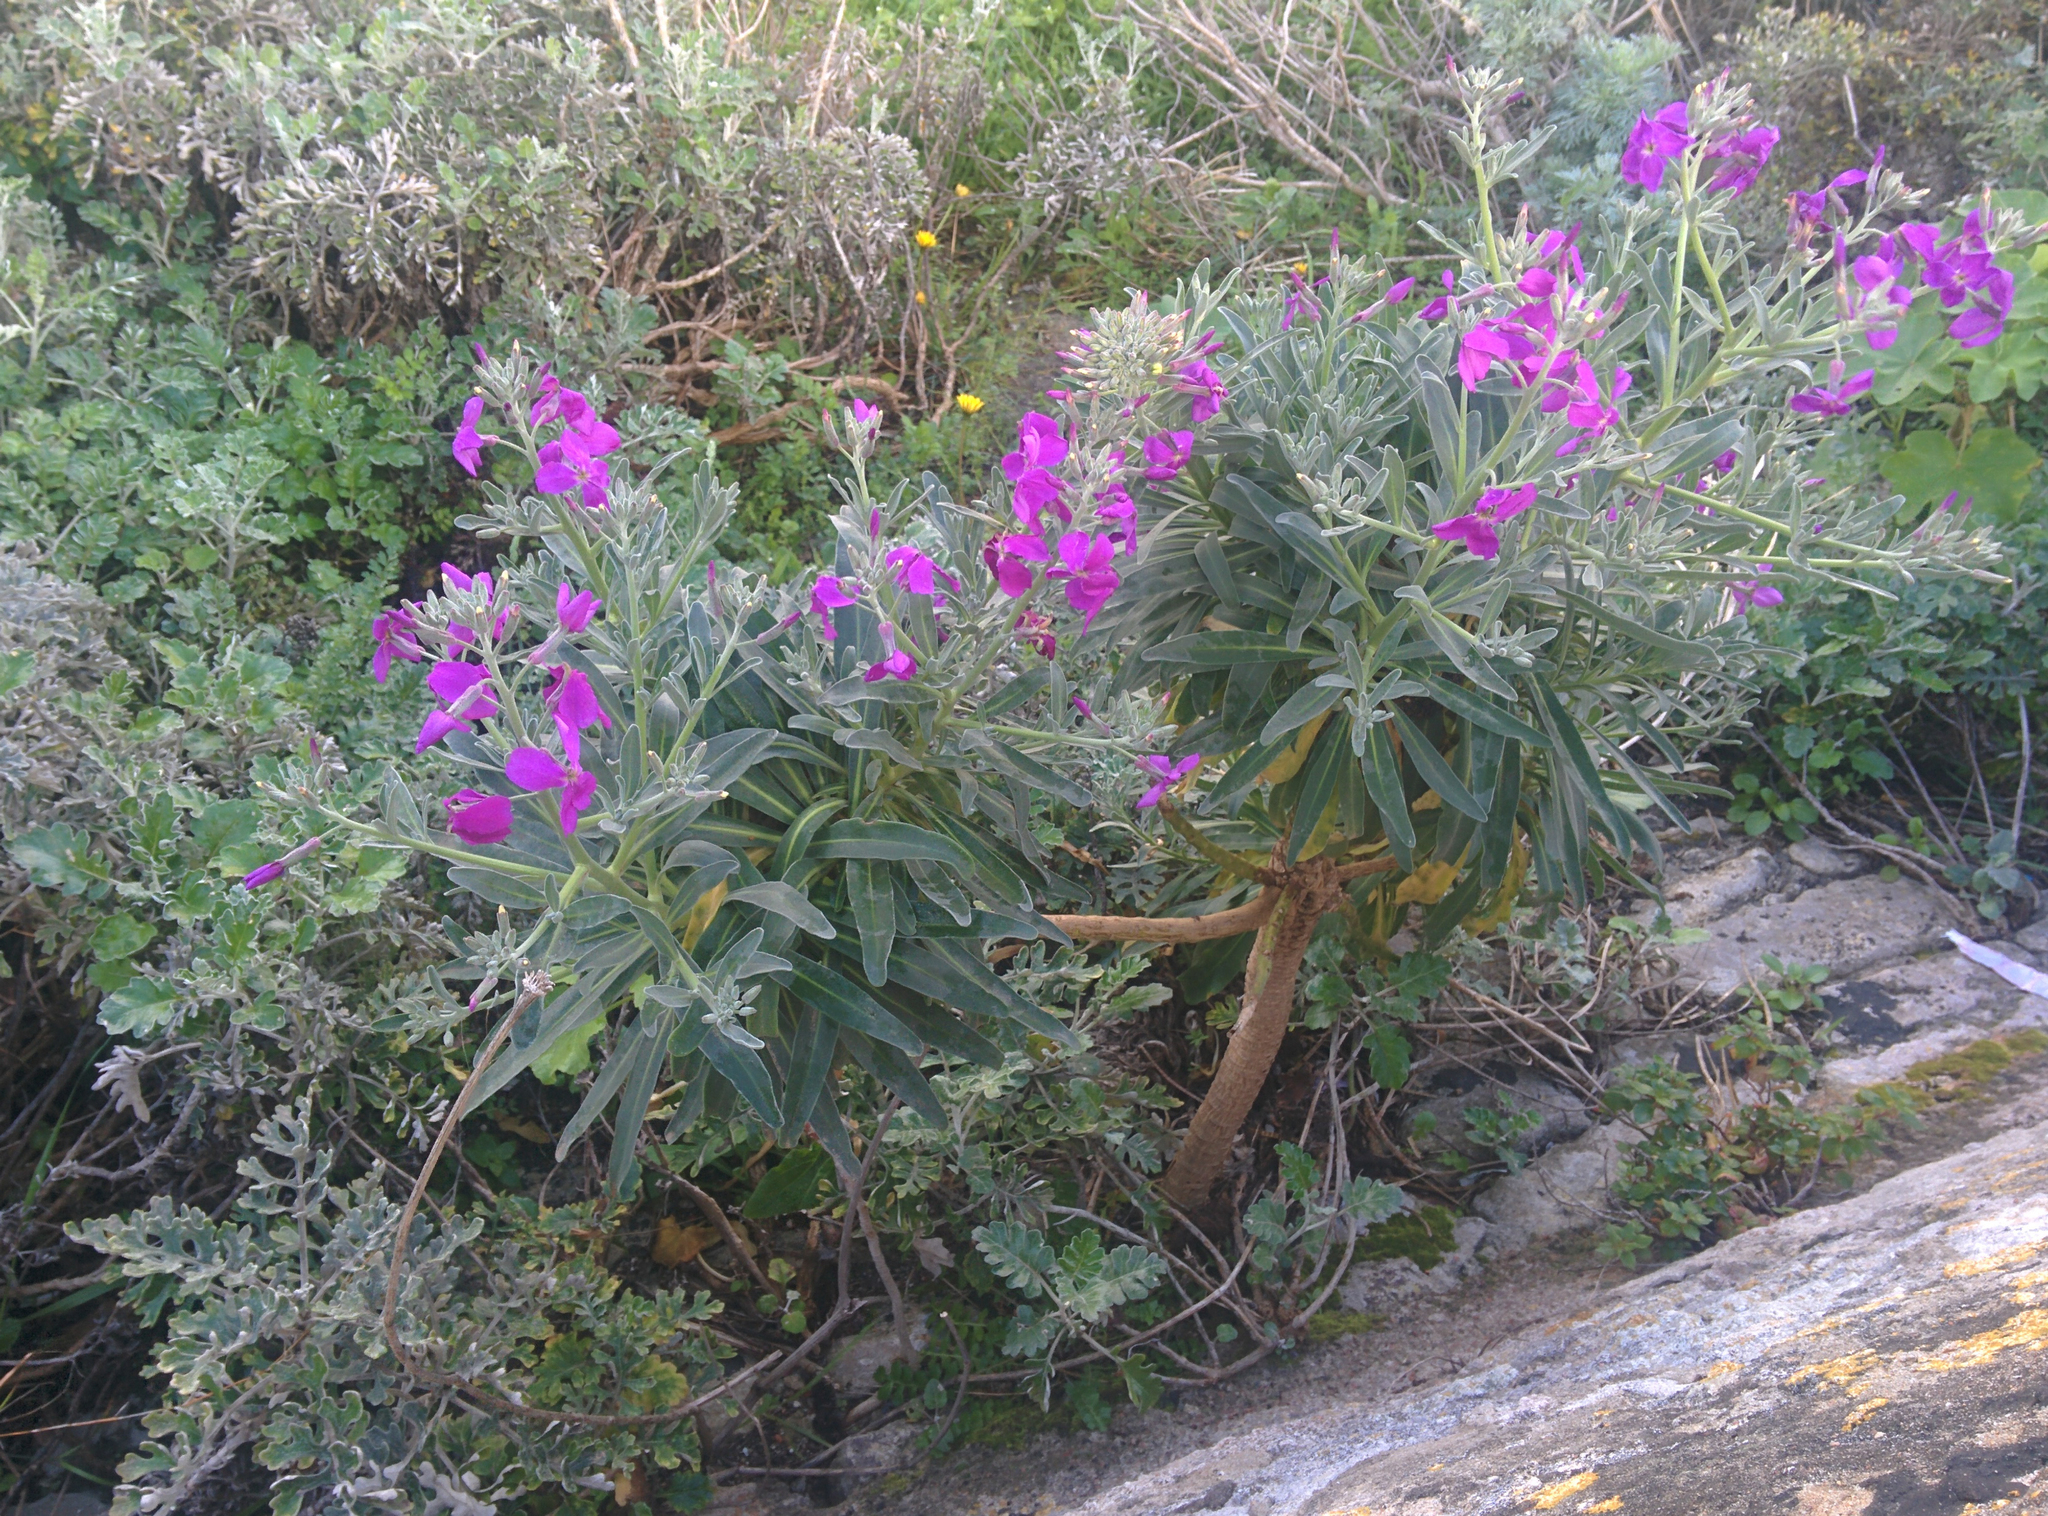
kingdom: Plantae
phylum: Tracheophyta
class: Magnoliopsida
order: Brassicales
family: Brassicaceae
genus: Matthiola
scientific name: Matthiola incana
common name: Hoary stock
